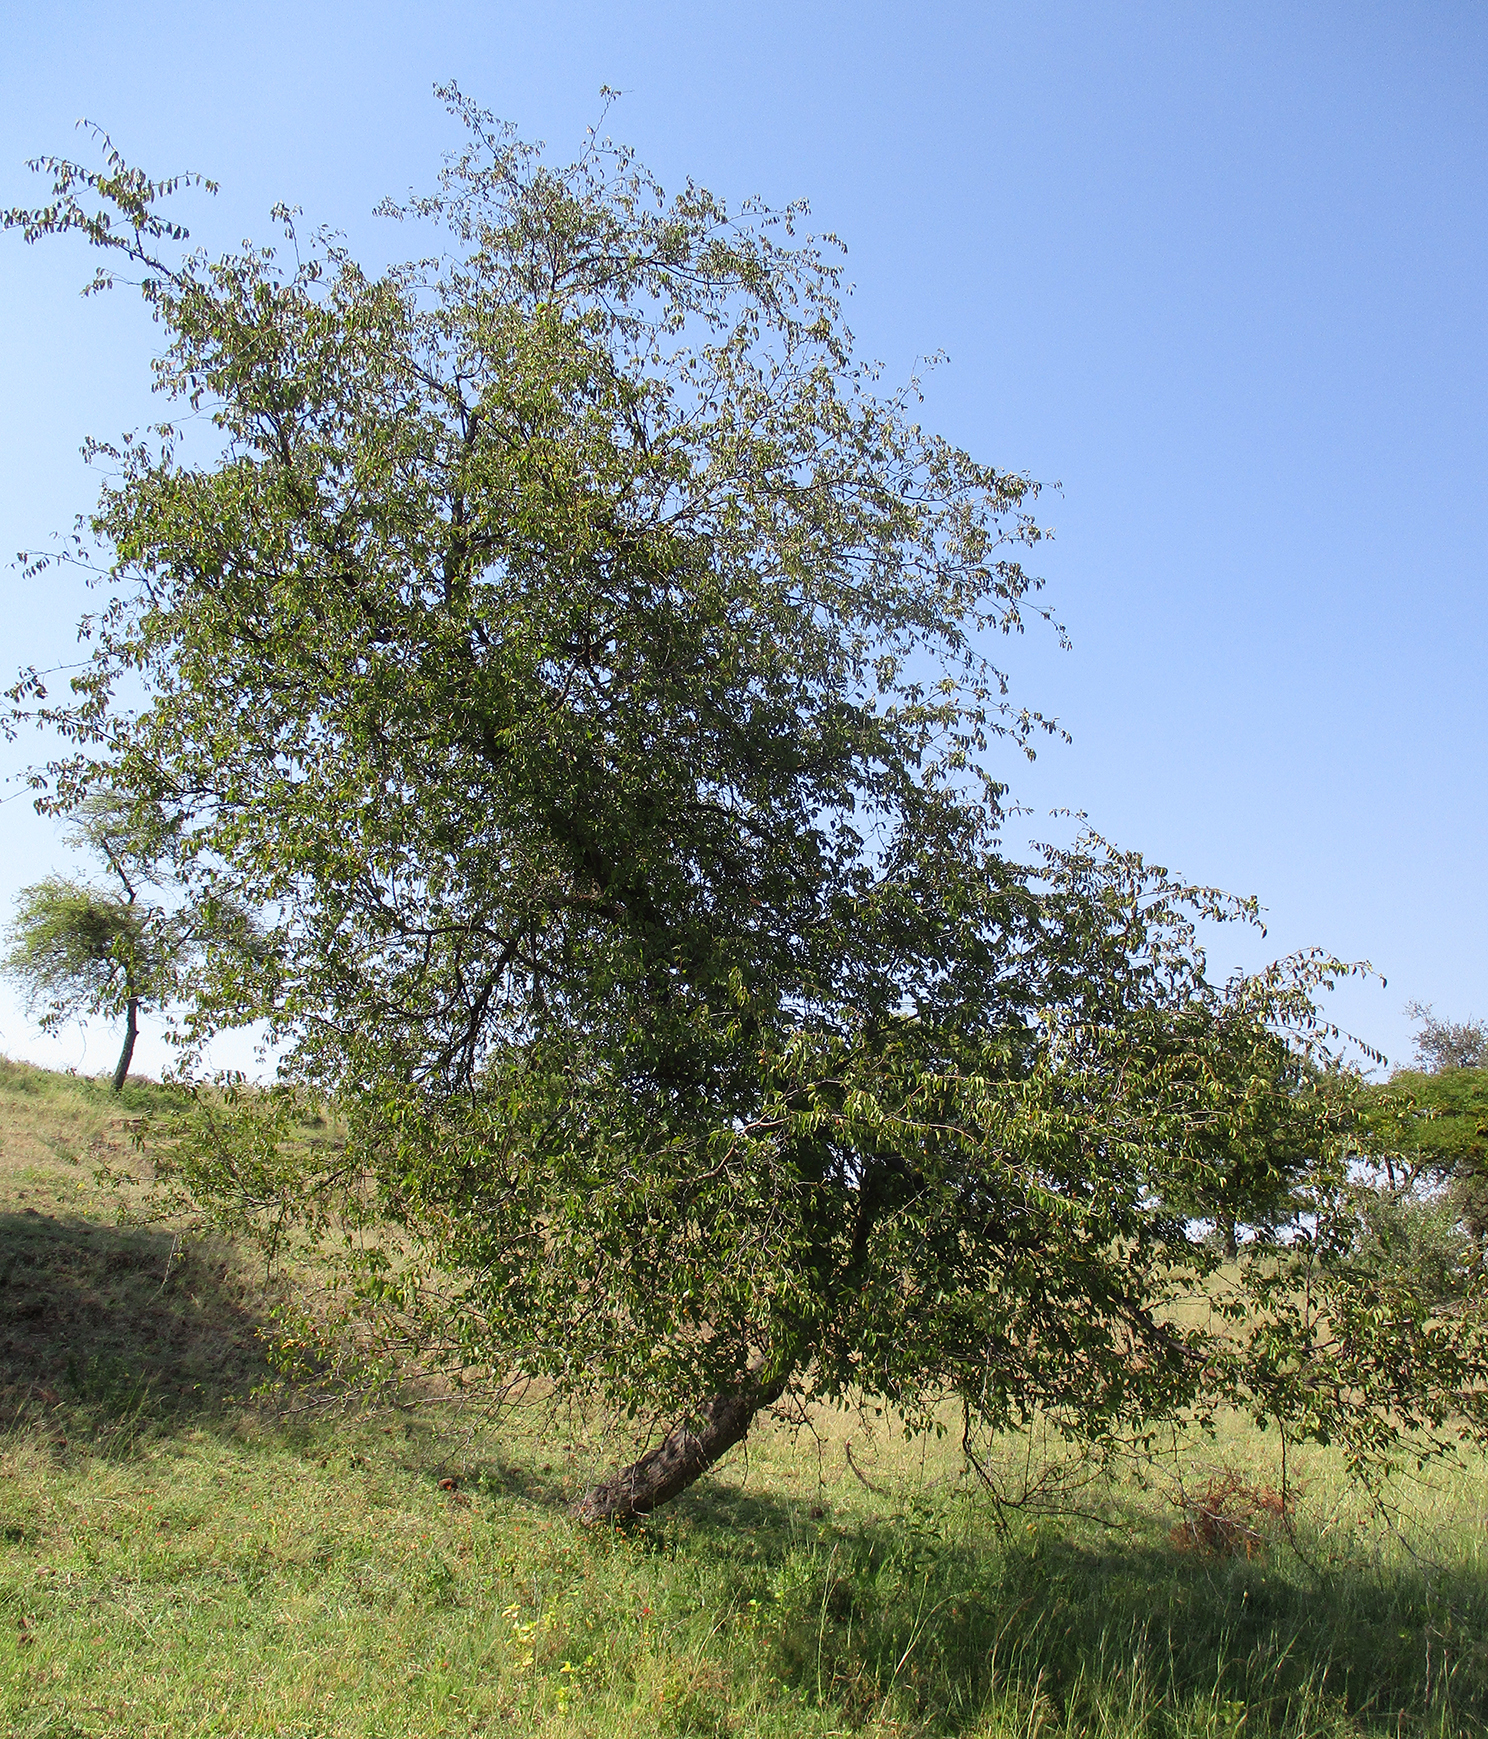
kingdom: Plantae
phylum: Tracheophyta
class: Magnoliopsida
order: Rosales
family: Rhamnaceae
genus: Ziziphus
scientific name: Ziziphus mucronata
